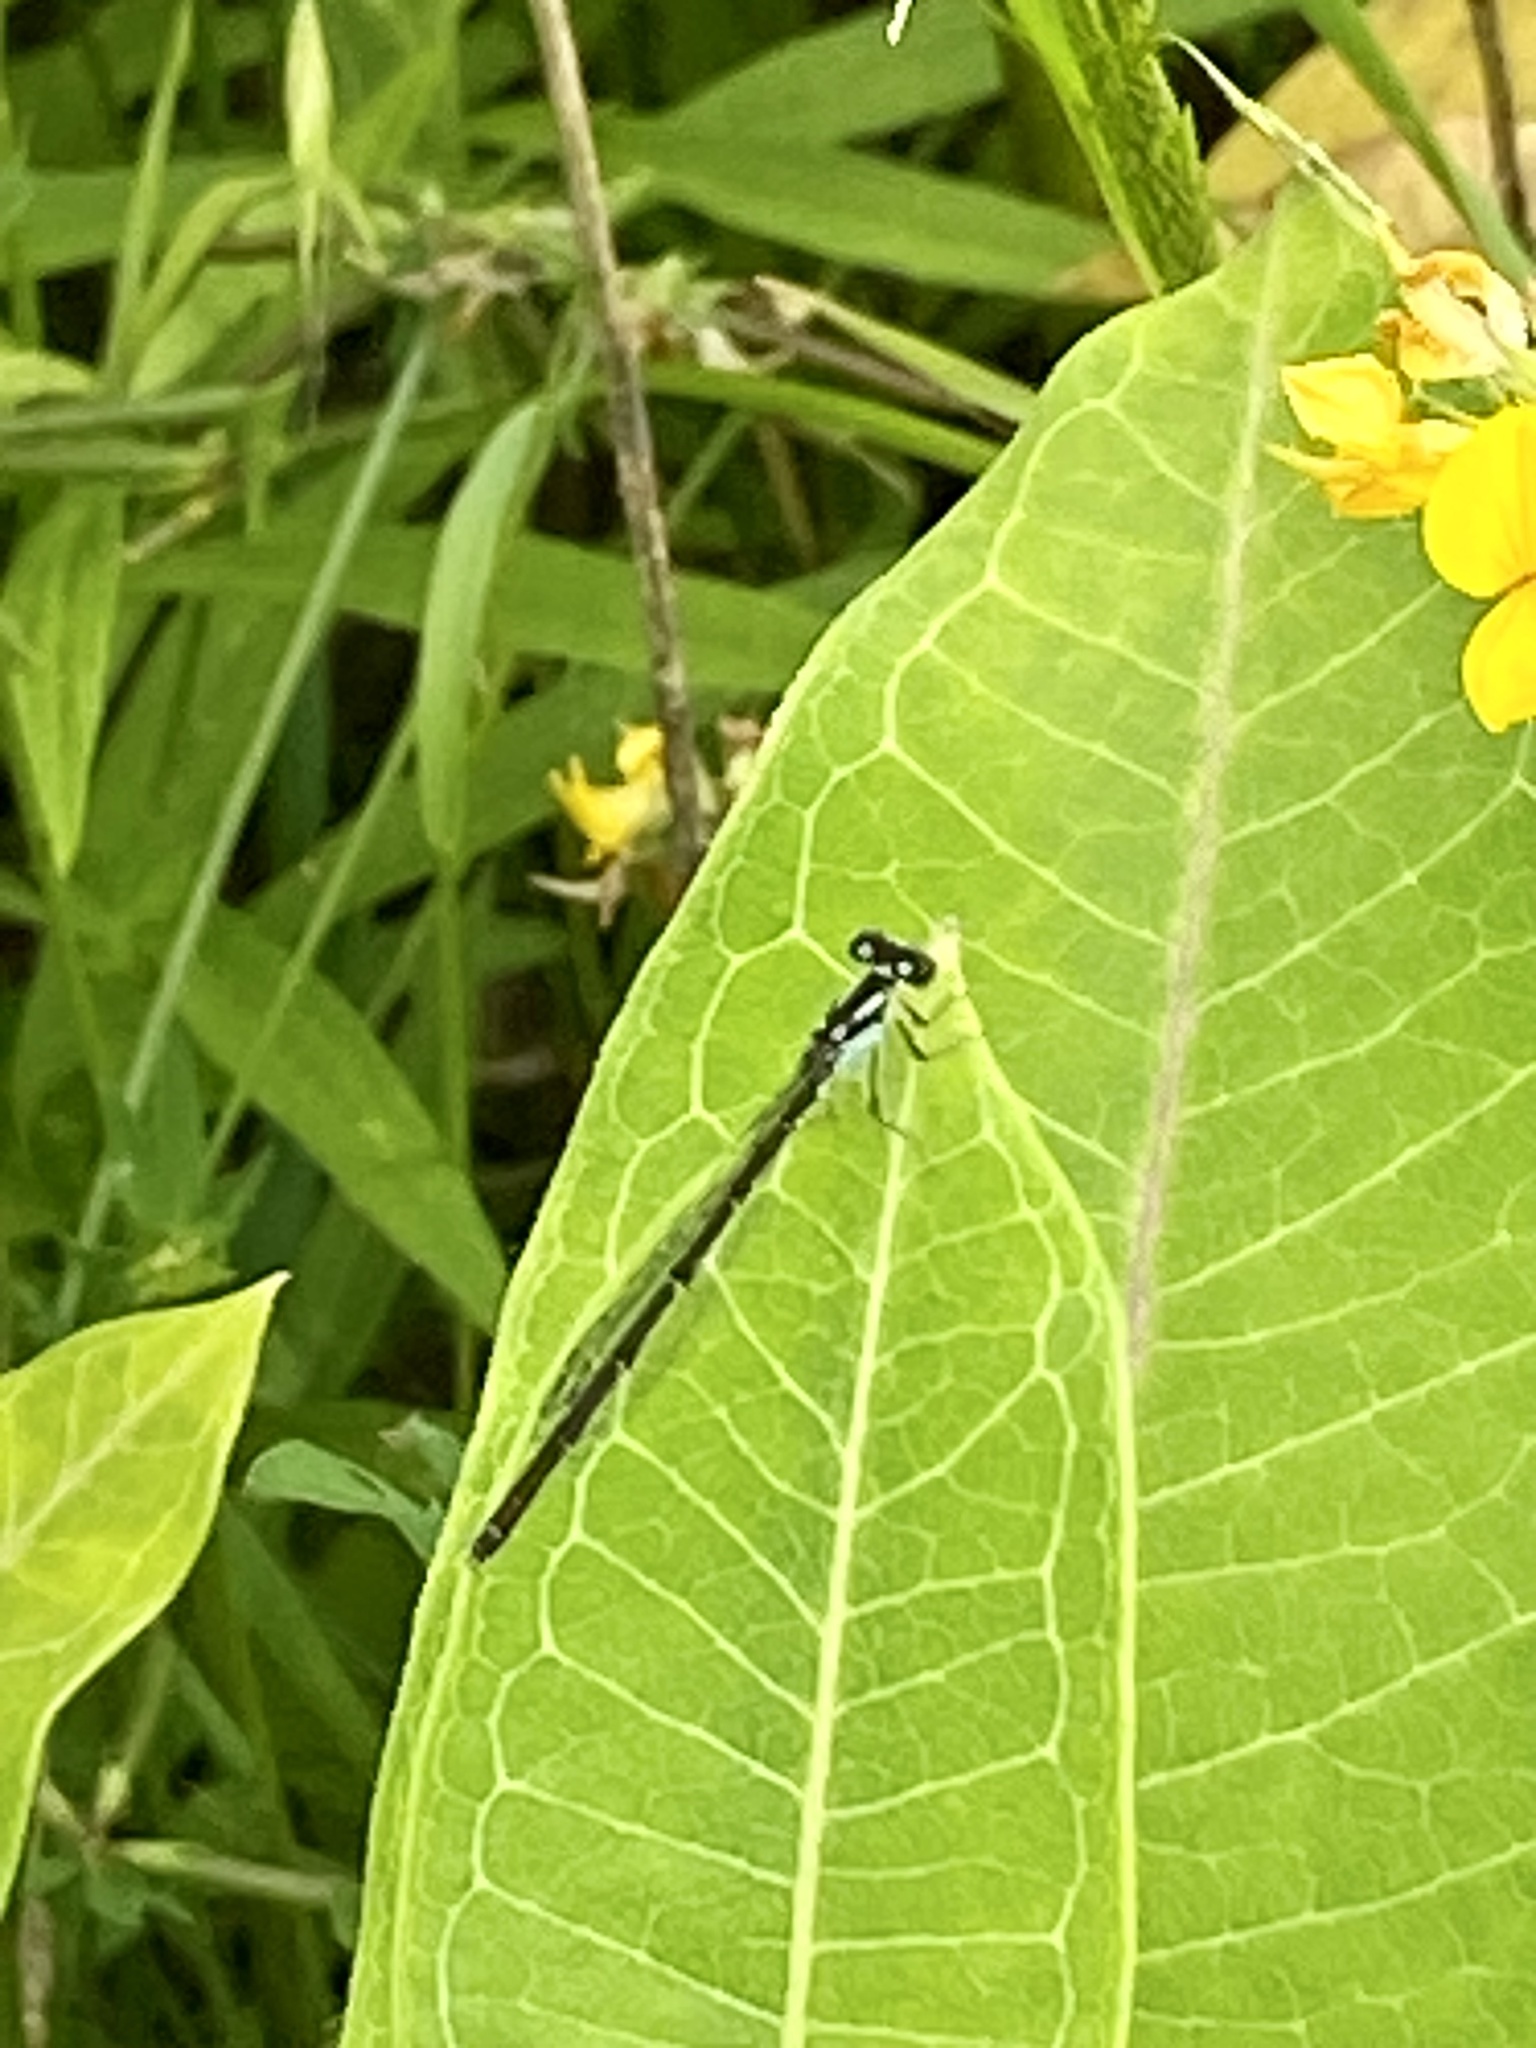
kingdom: Animalia
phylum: Arthropoda
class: Insecta
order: Odonata
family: Coenagrionidae
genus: Ischnura
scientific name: Ischnura posita
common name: Fragile forktail
